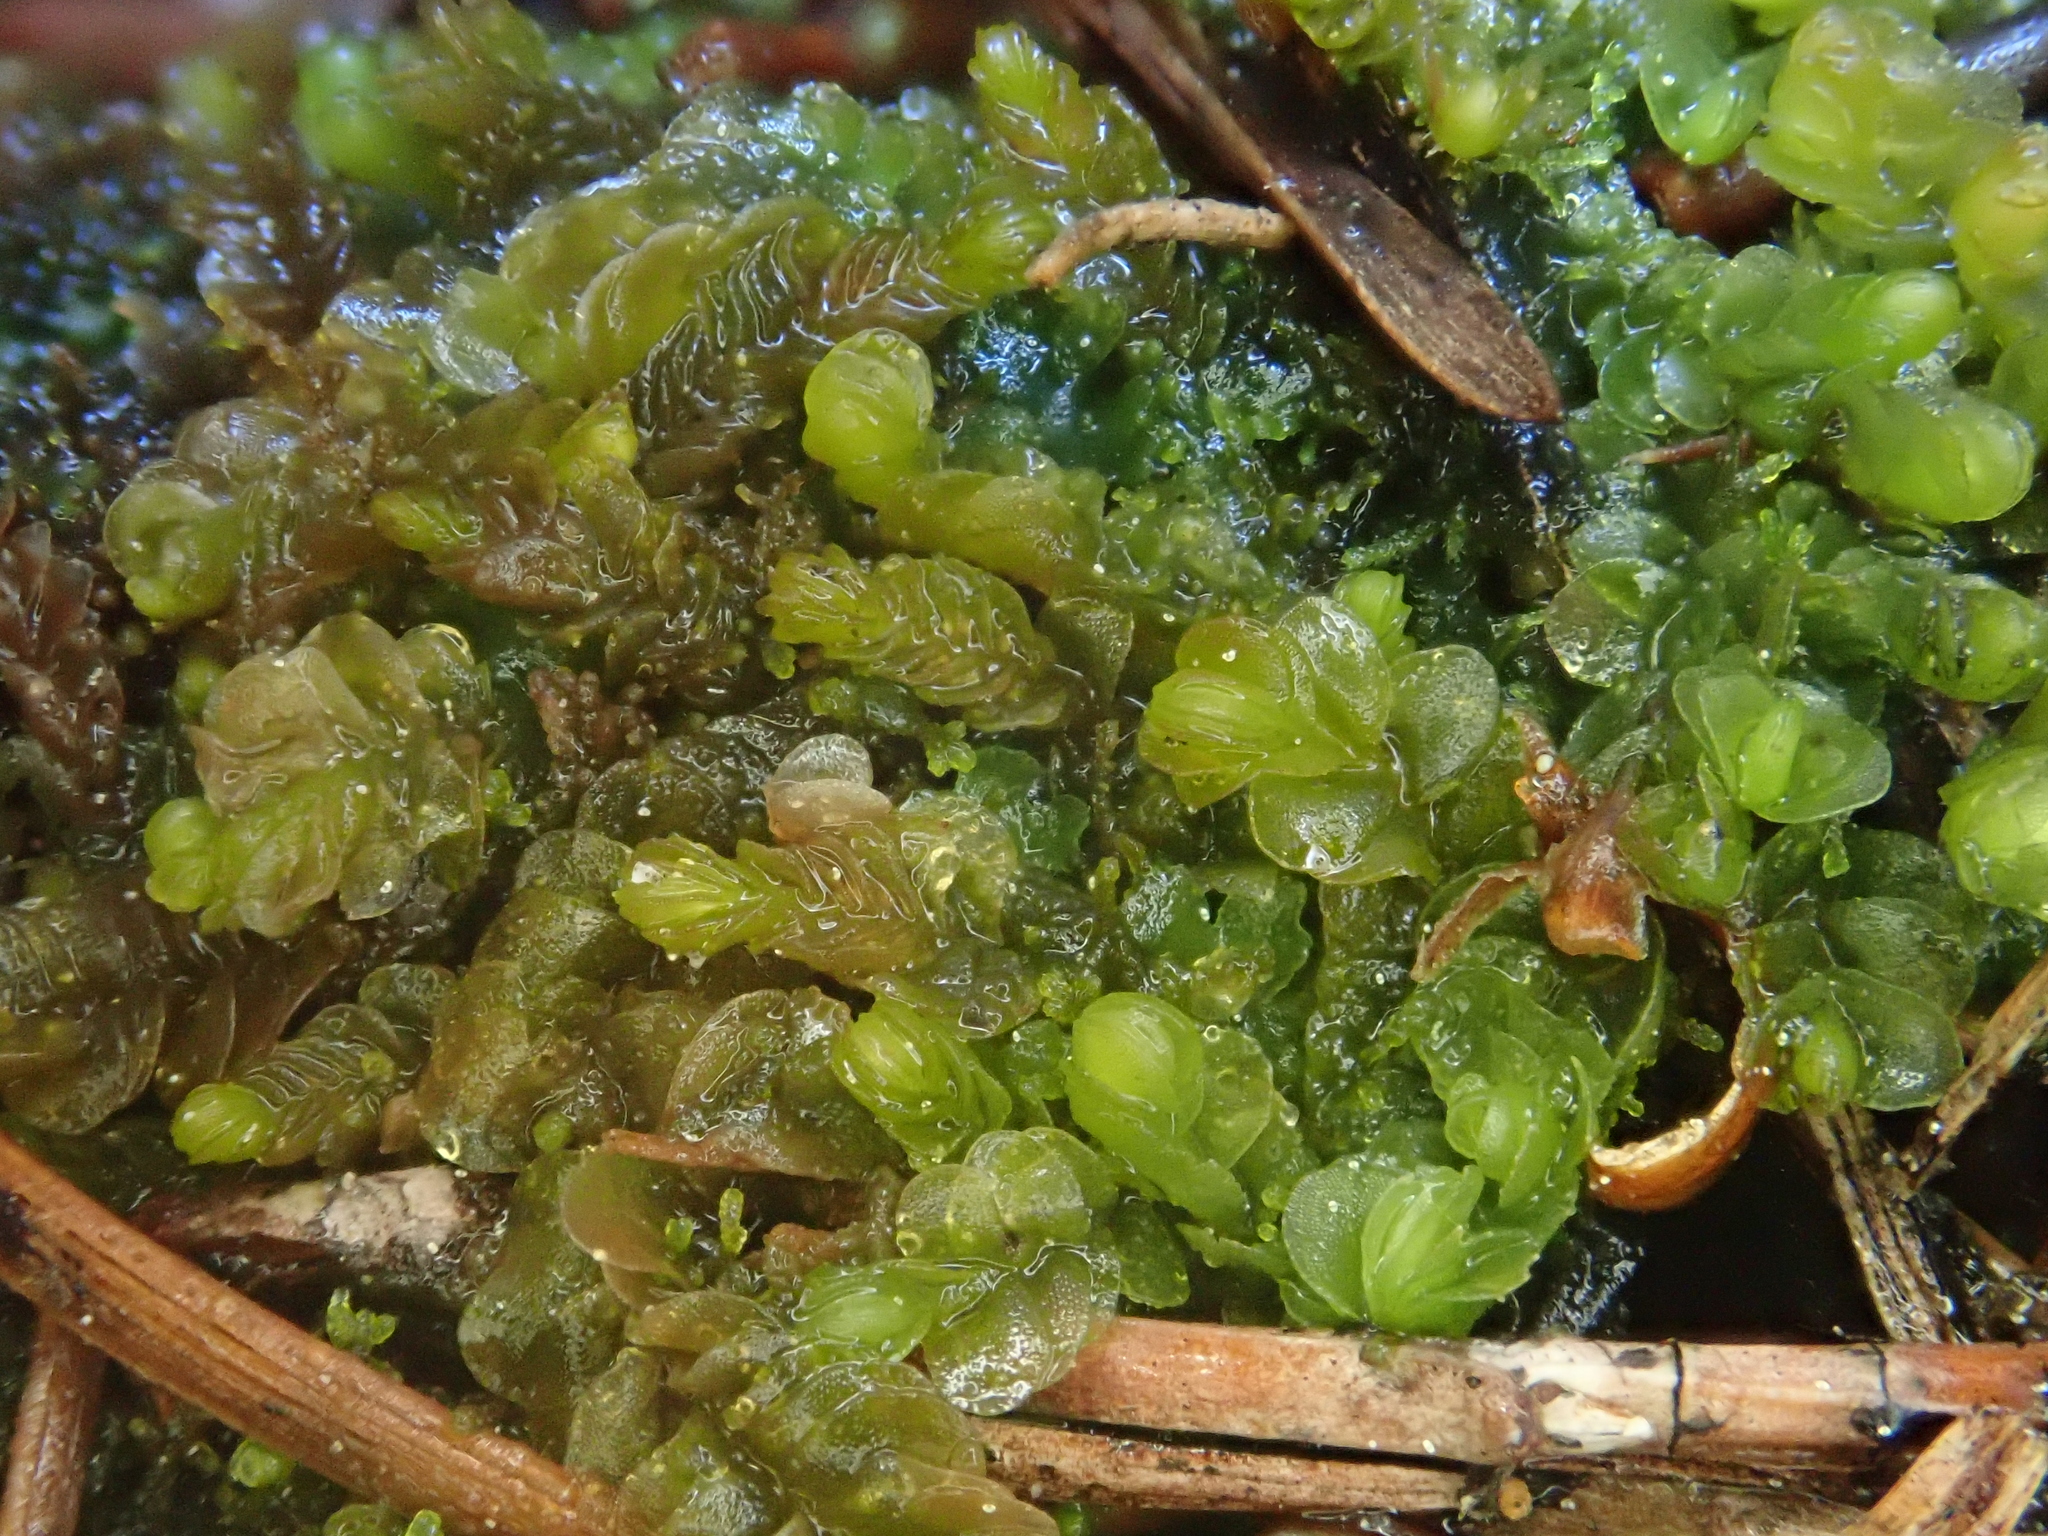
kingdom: Plantae
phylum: Marchantiophyta
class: Jungermanniopsida
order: Jungermanniales
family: Myliaceae
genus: Mylia
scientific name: Mylia anomala
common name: Anomalous flapwort
